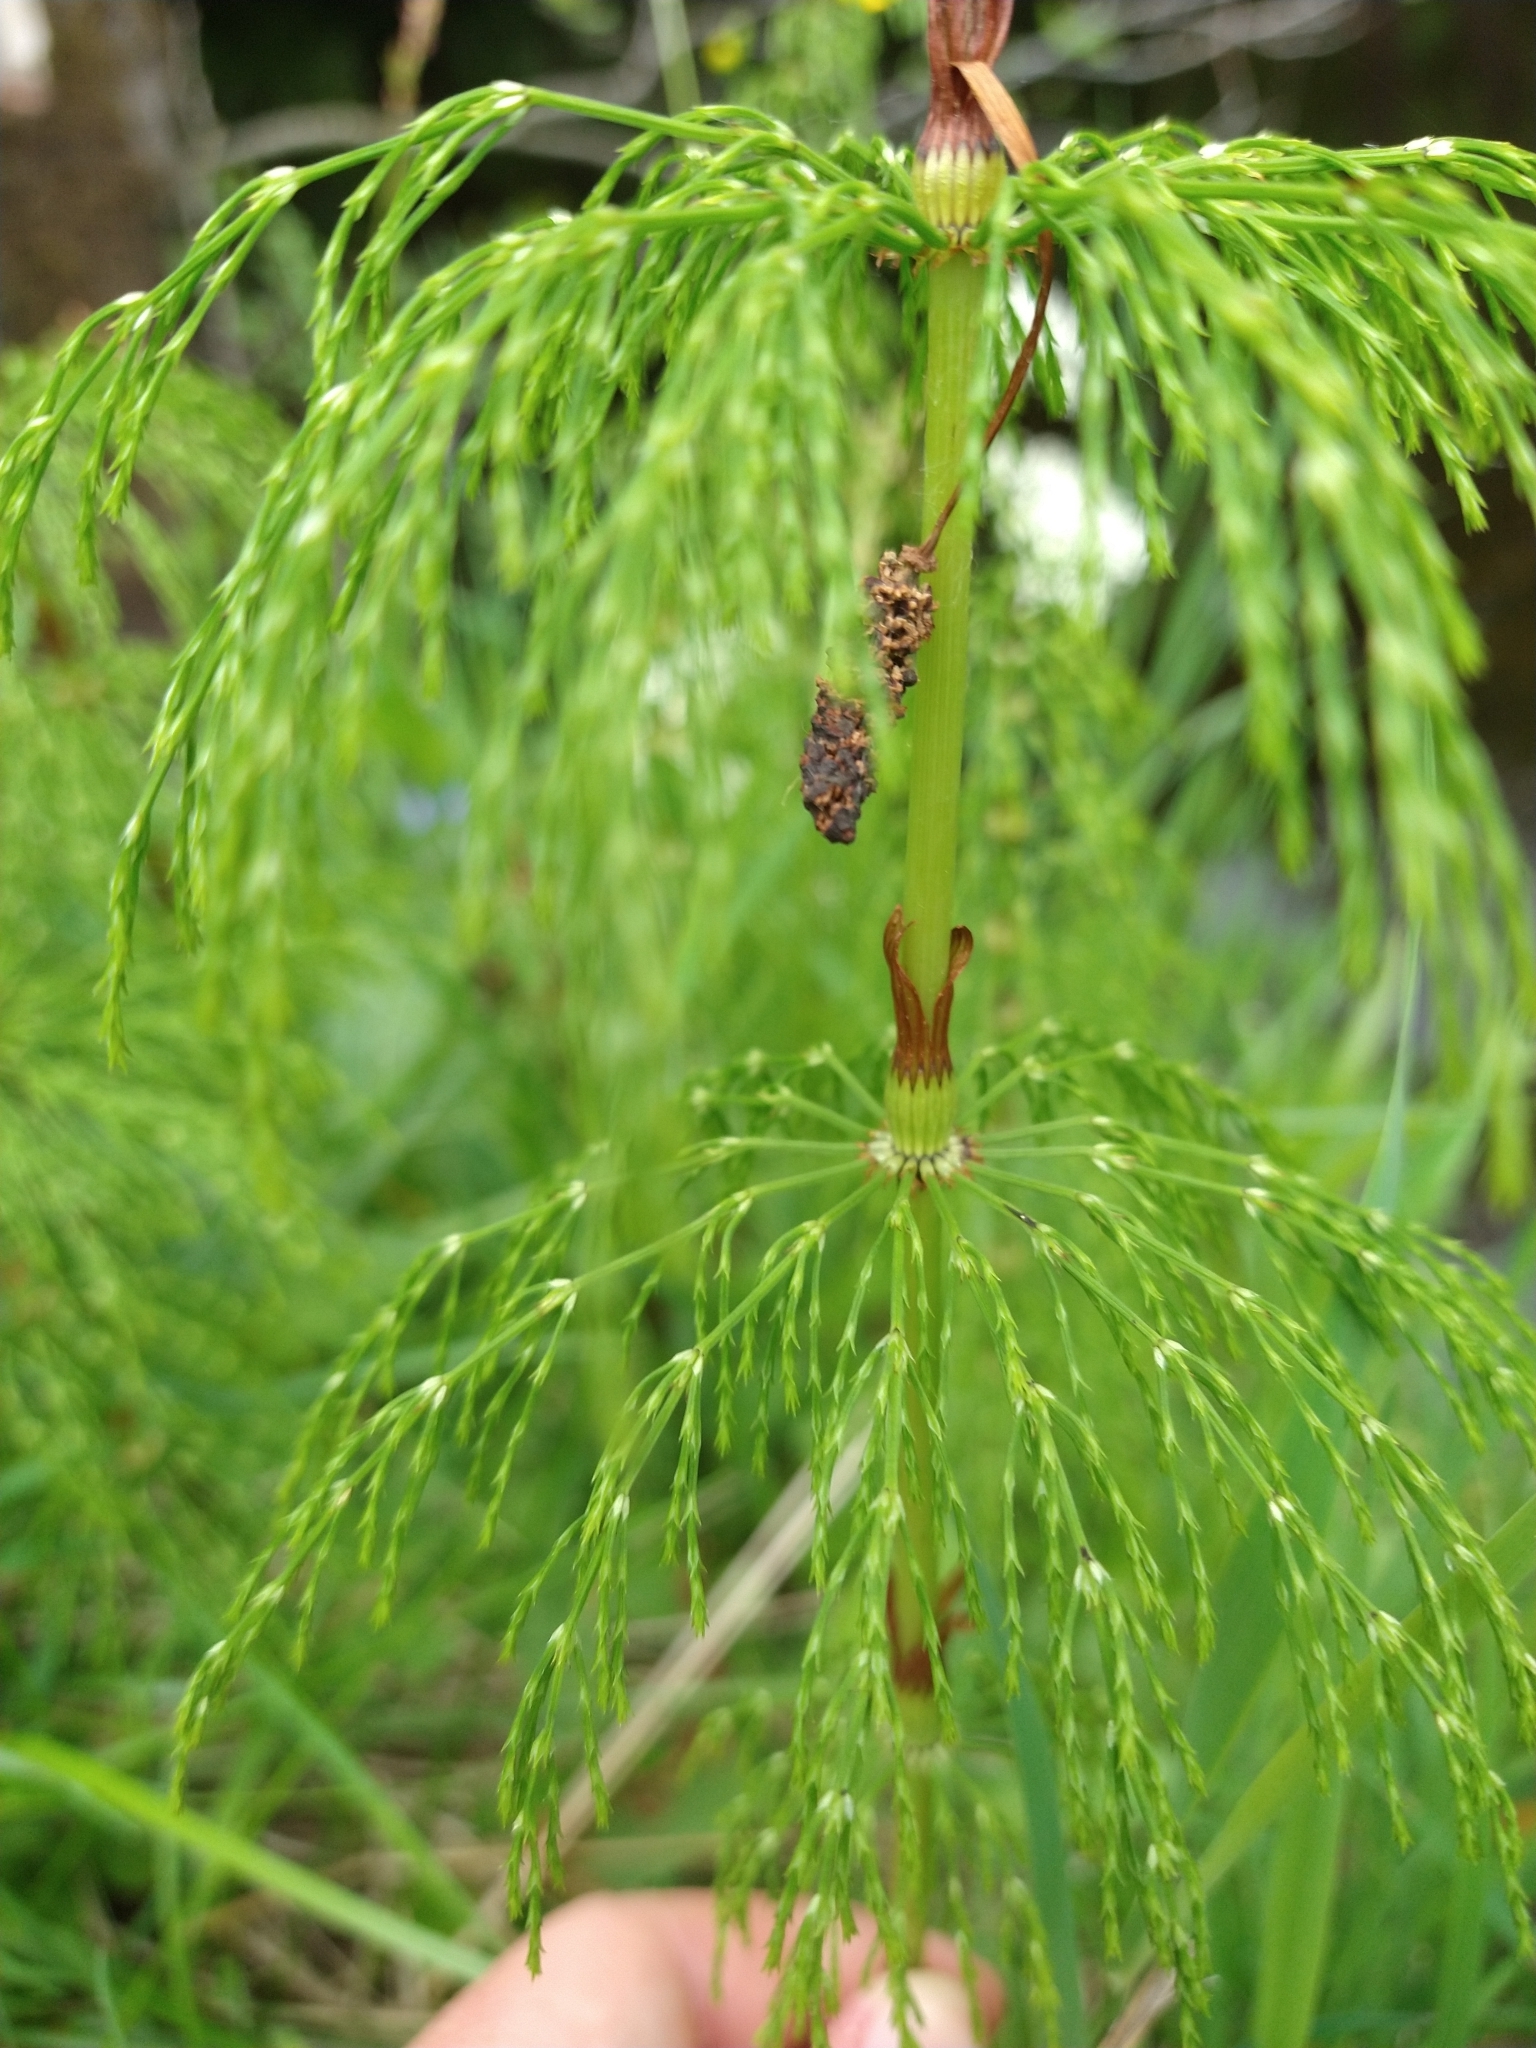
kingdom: Plantae
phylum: Tracheophyta
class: Polypodiopsida
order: Equisetales
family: Equisetaceae
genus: Equisetum
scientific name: Equisetum sylvaticum
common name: Wood horsetail
